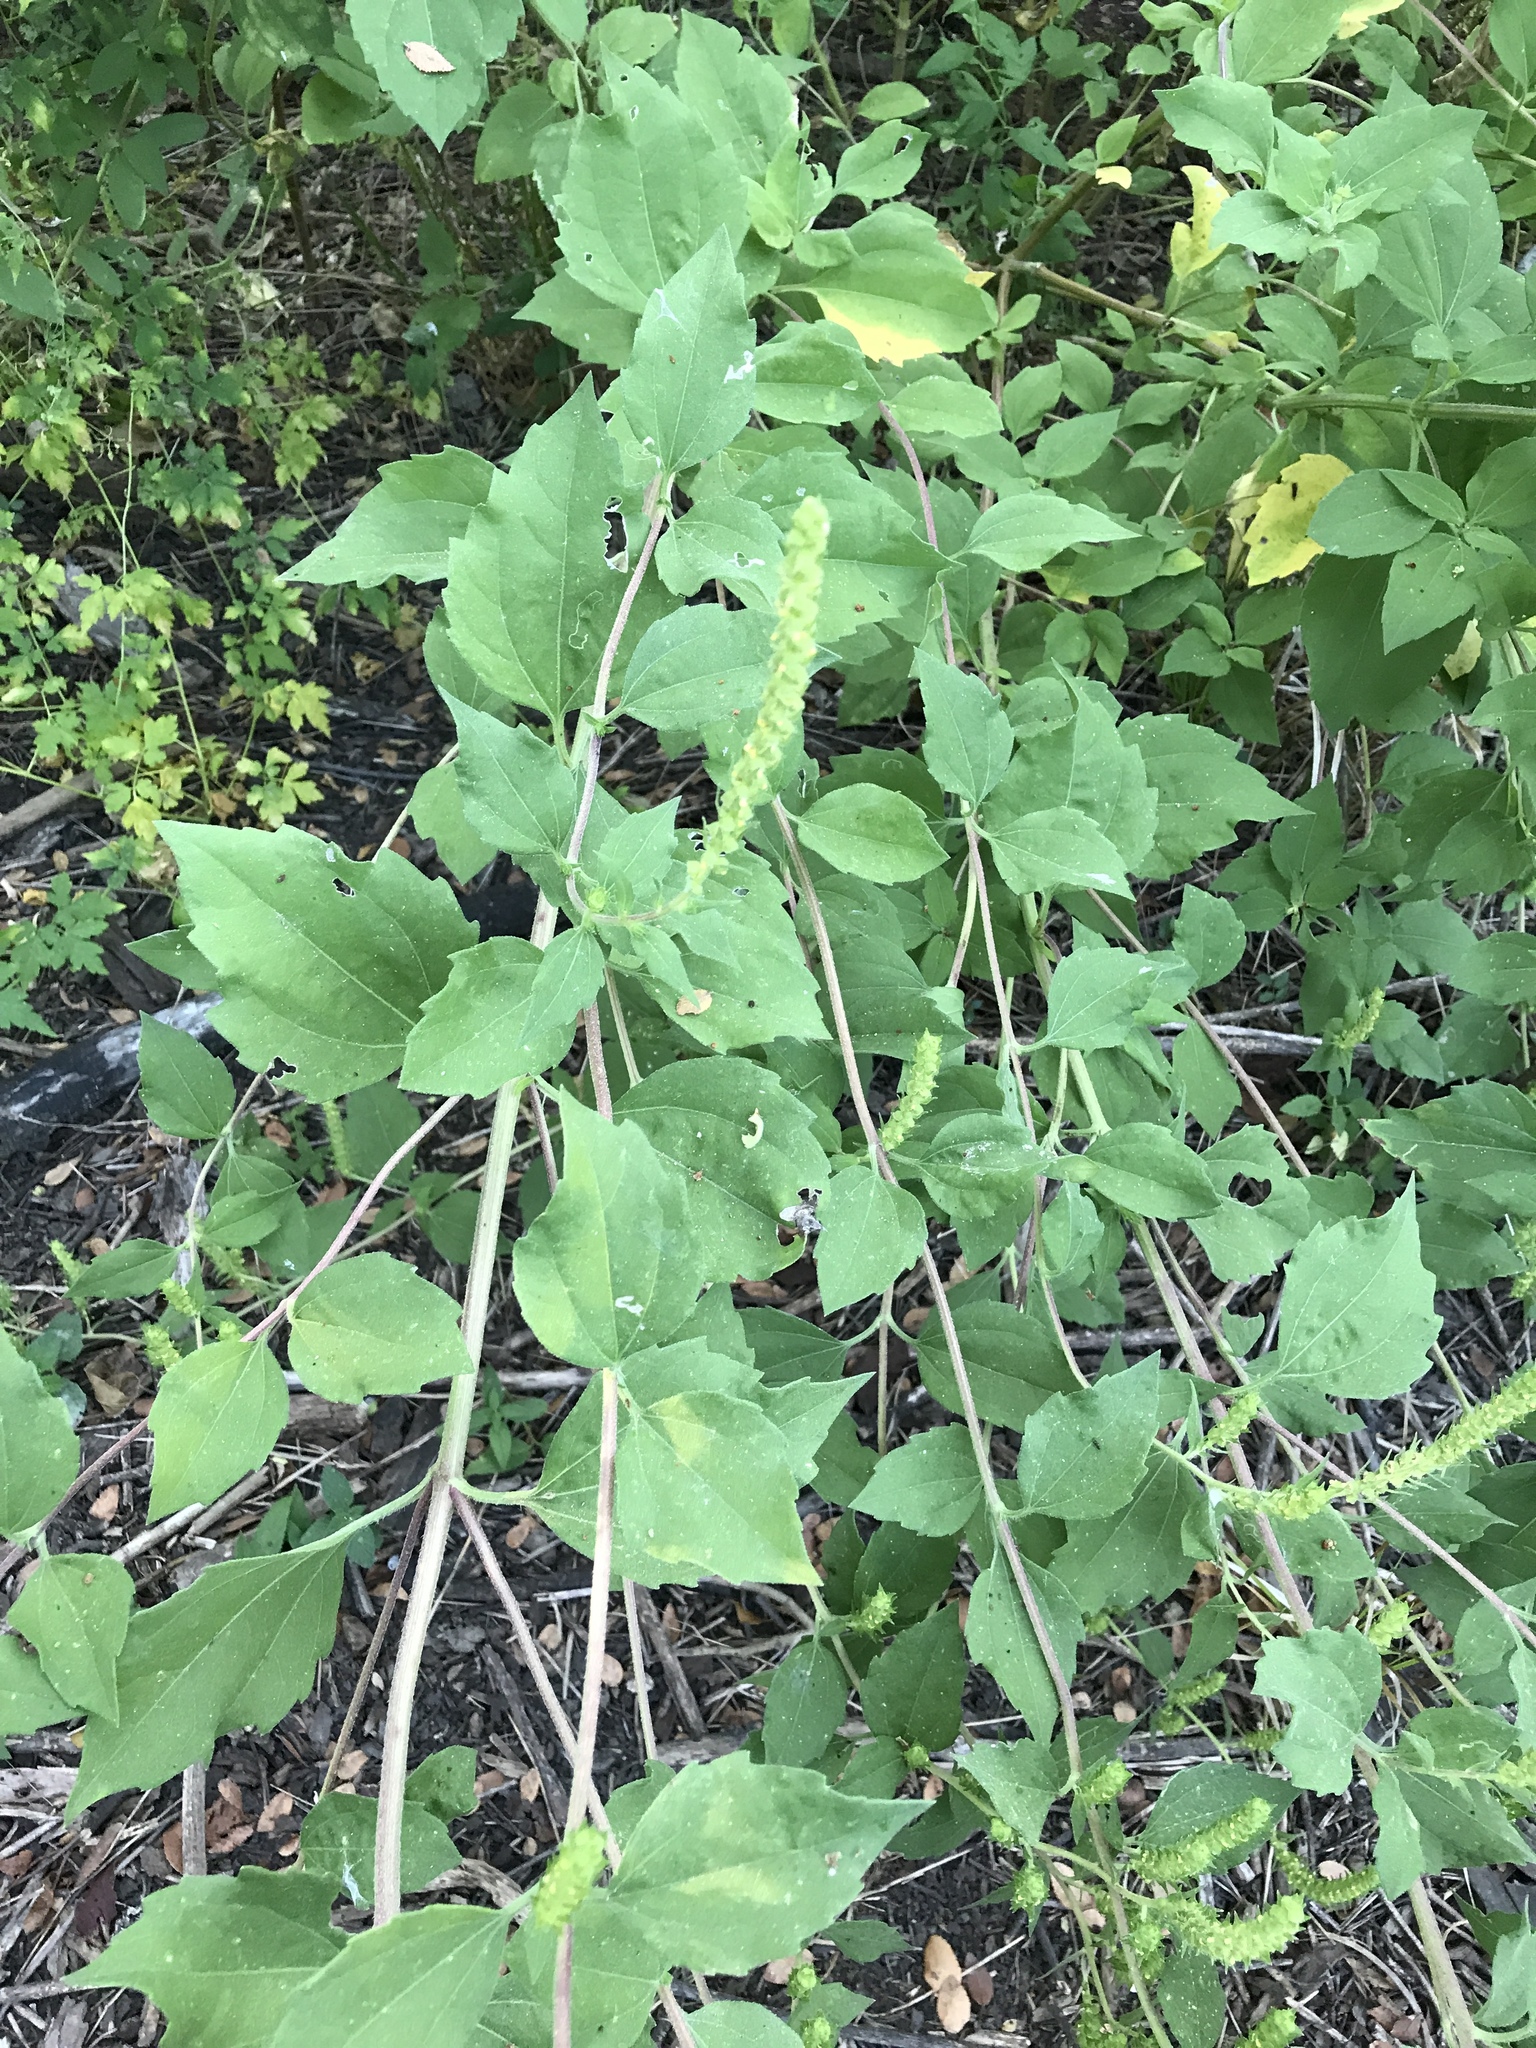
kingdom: Plantae
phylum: Tracheophyta
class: Magnoliopsida
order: Asterales
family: Asteraceae
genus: Iva
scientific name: Iva annua
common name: Marsh-elder
